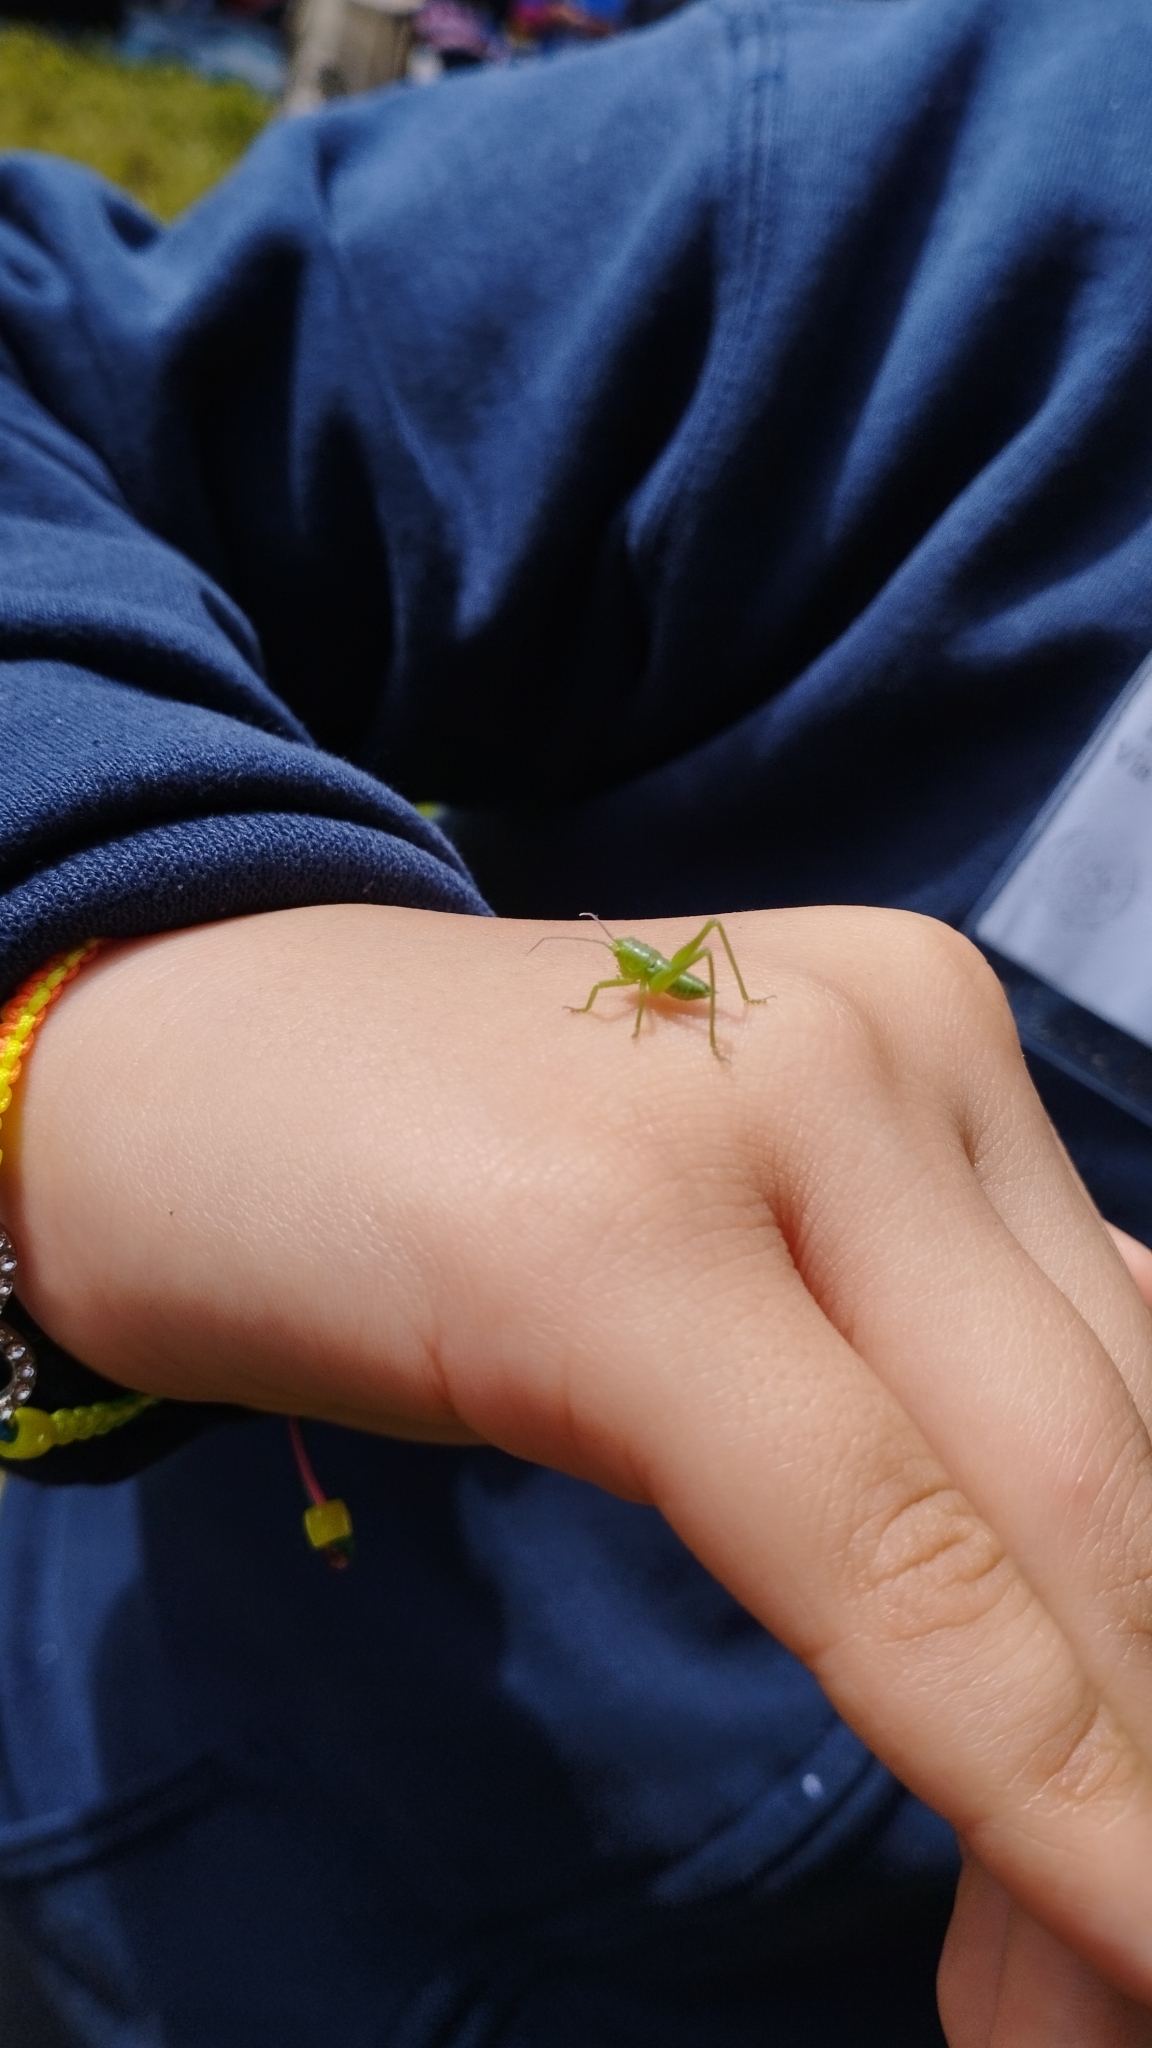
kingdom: Animalia
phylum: Arthropoda
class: Insecta
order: Orthoptera
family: Tettigoniidae
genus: Tettigonia
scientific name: Tettigonia viridissima
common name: Great green bush-cricket
